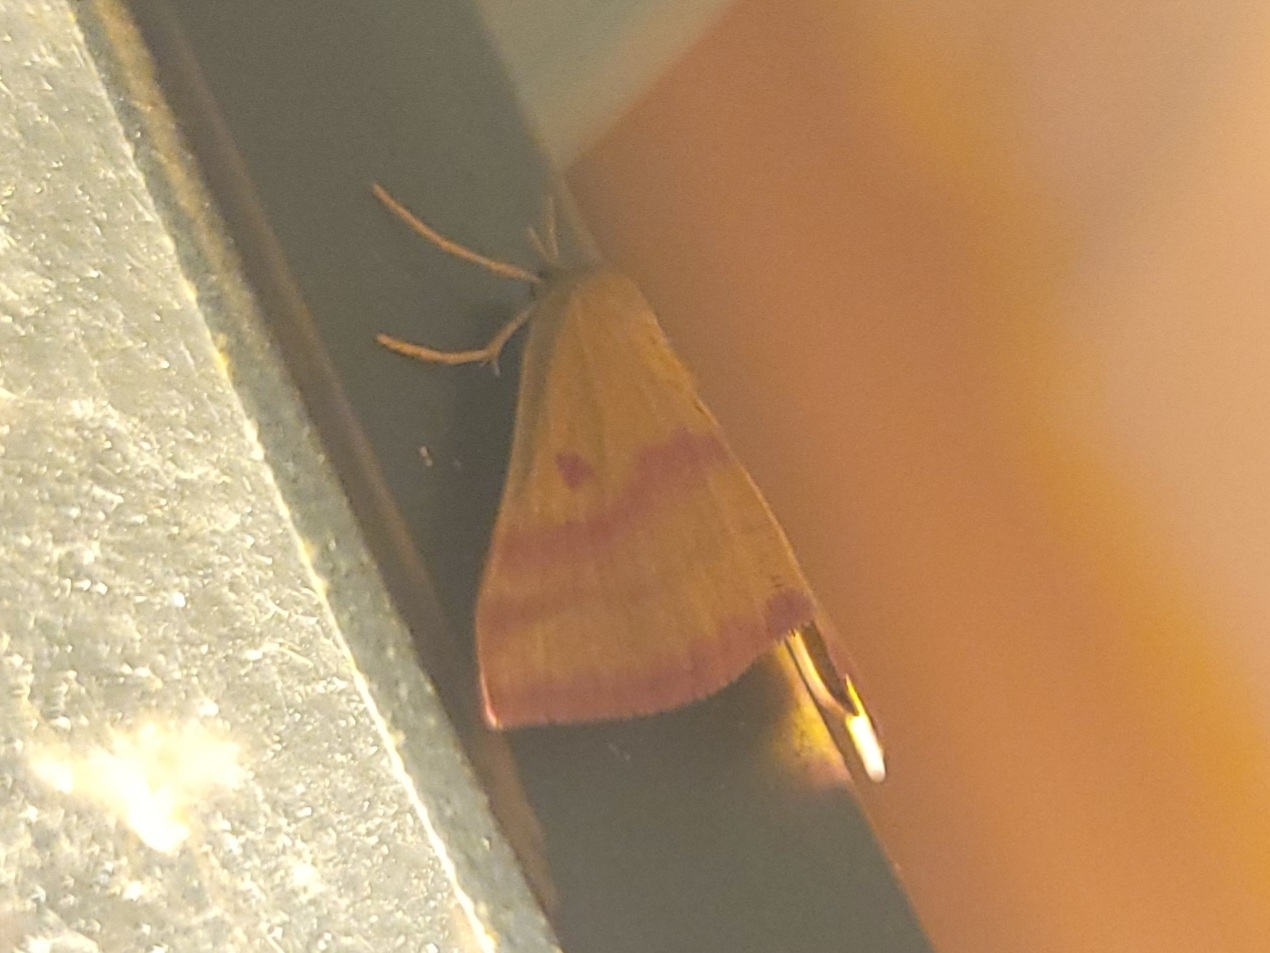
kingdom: Animalia
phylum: Arthropoda
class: Insecta
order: Lepidoptera
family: Geometridae
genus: Haematopis
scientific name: Haematopis grataria
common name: Chickweed geometer
